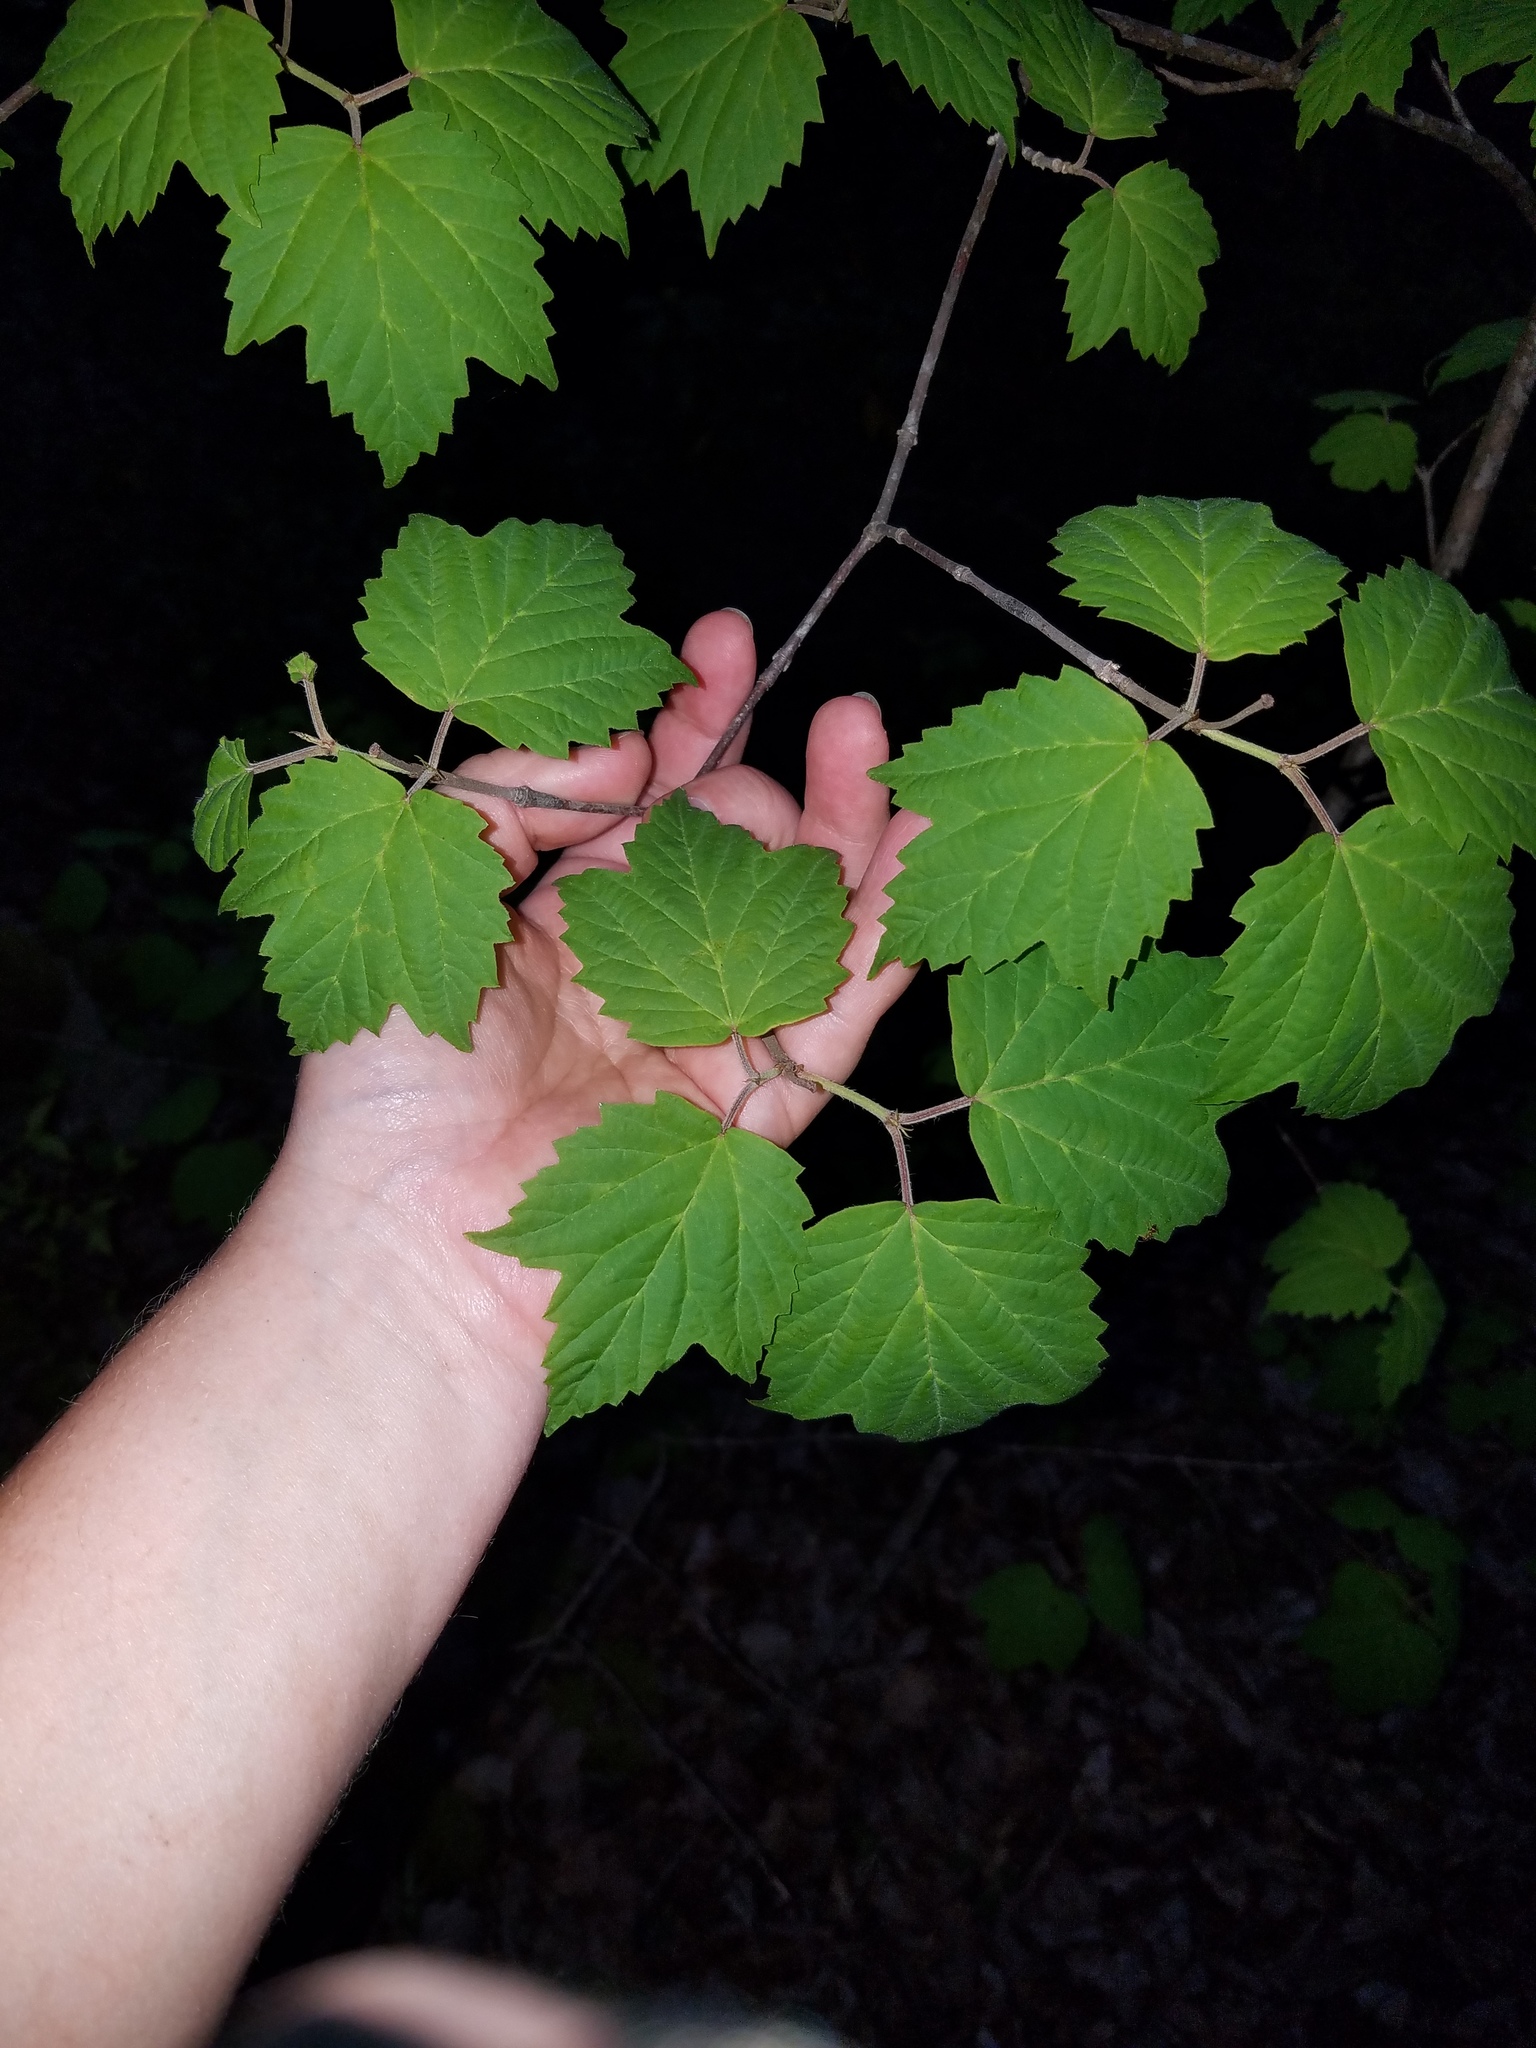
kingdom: Plantae
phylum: Tracheophyta
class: Magnoliopsida
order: Dipsacales
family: Viburnaceae
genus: Viburnum
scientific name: Viburnum acerifolium
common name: Dockmackie
